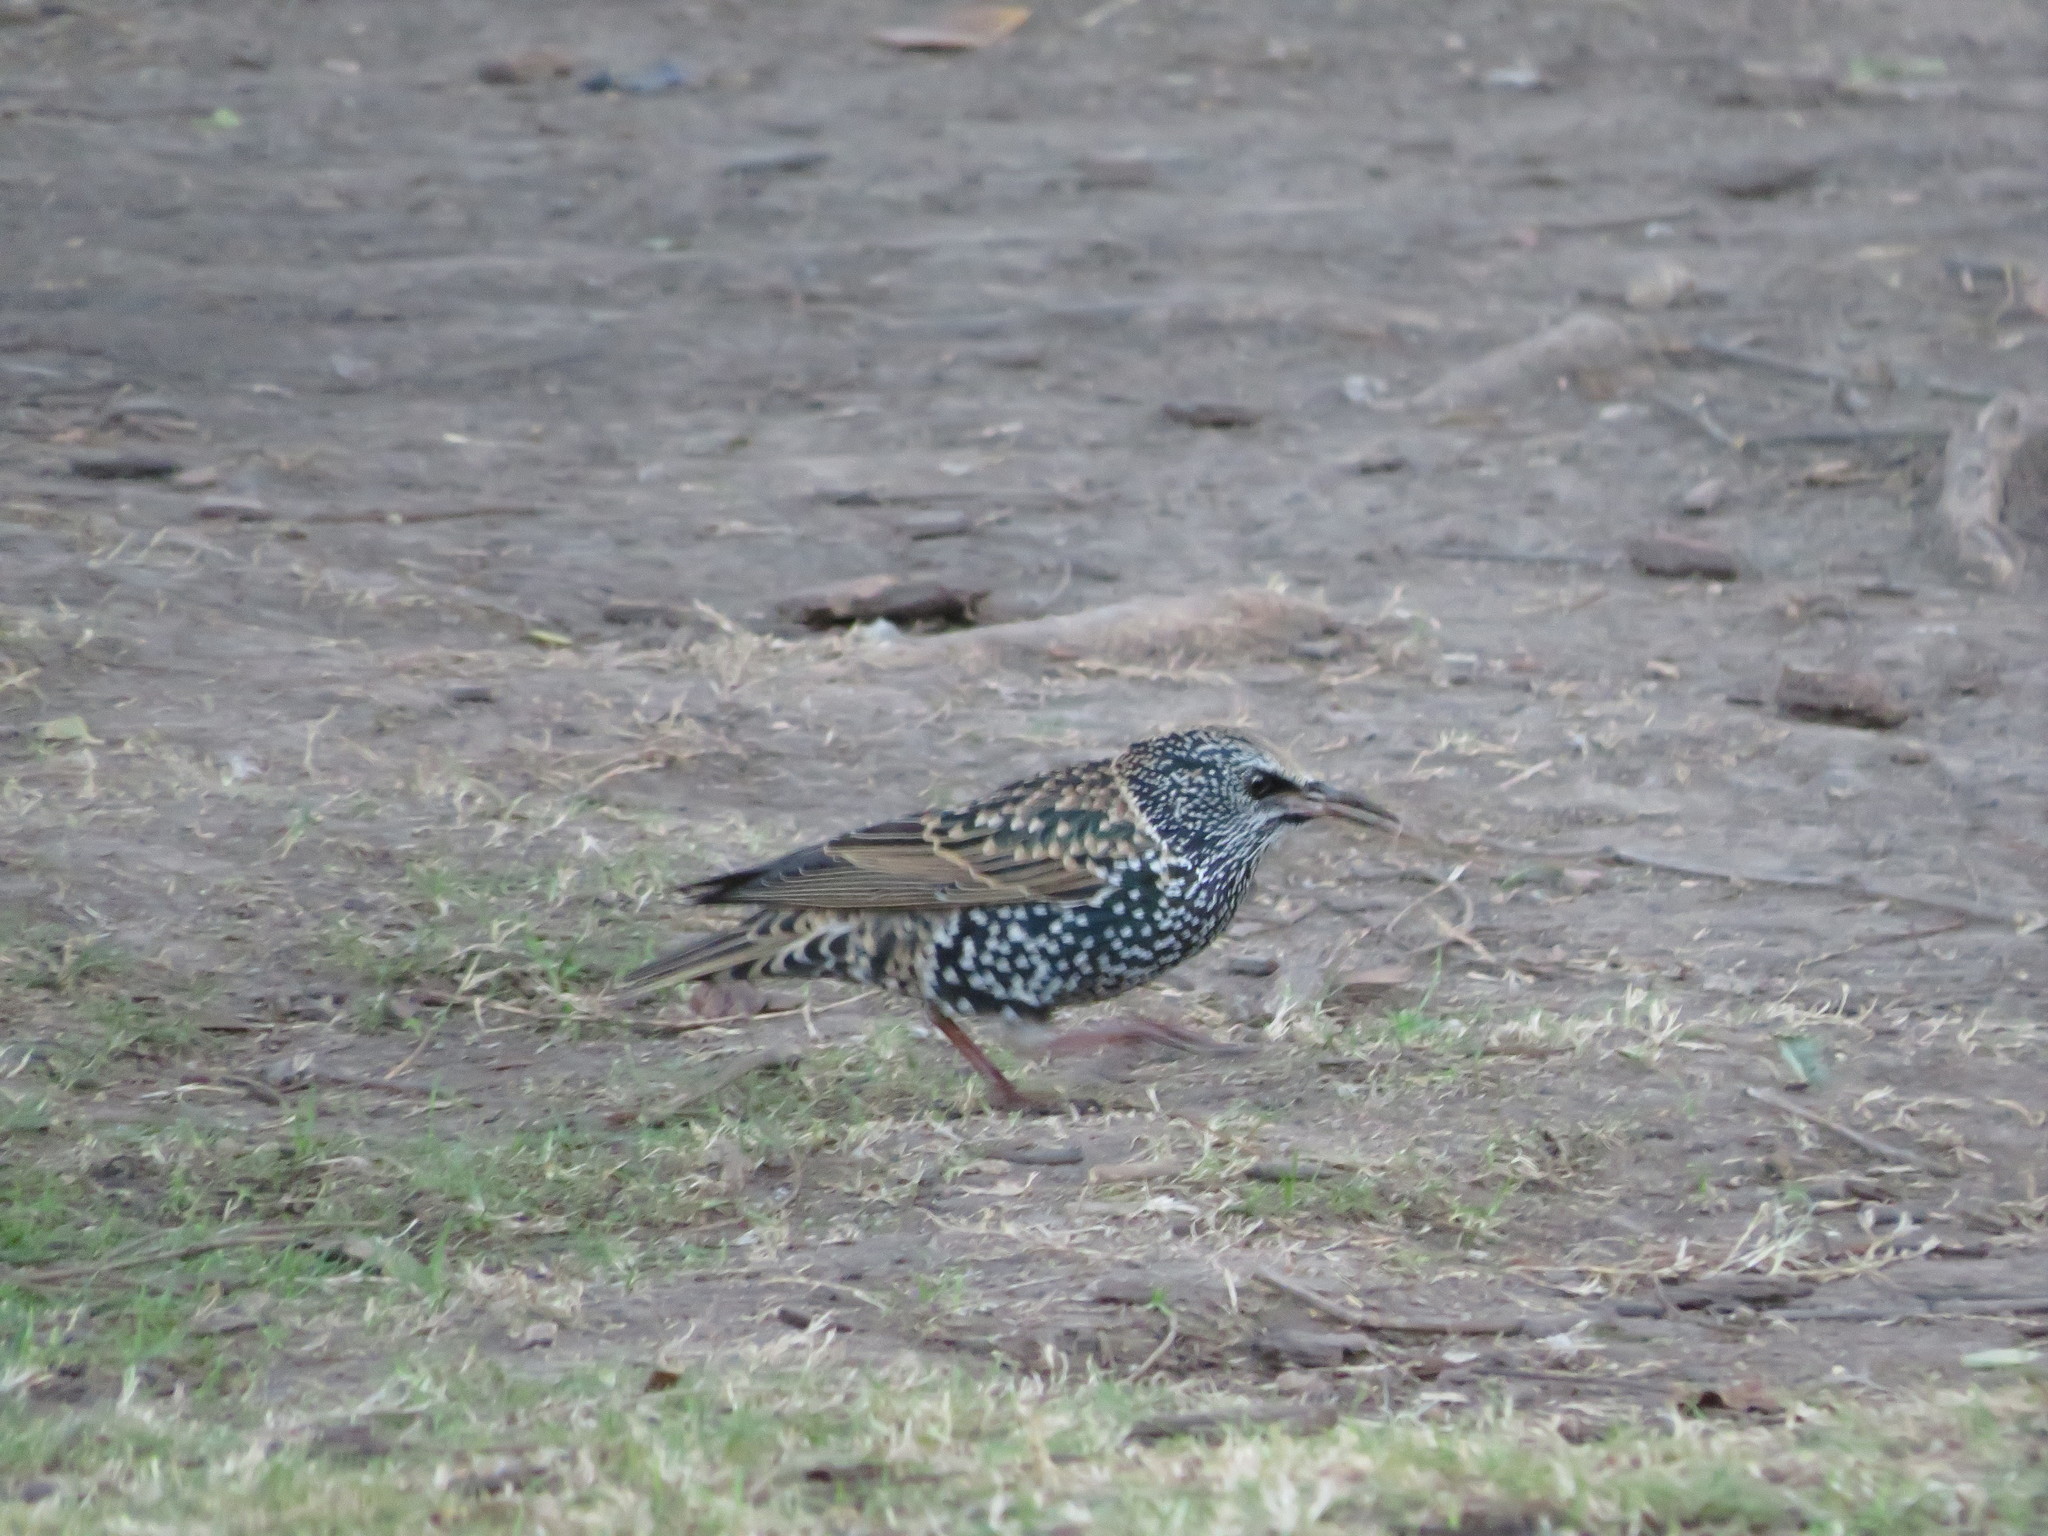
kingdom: Animalia
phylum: Chordata
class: Aves
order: Passeriformes
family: Sturnidae
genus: Sturnus
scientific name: Sturnus vulgaris
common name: Common starling
